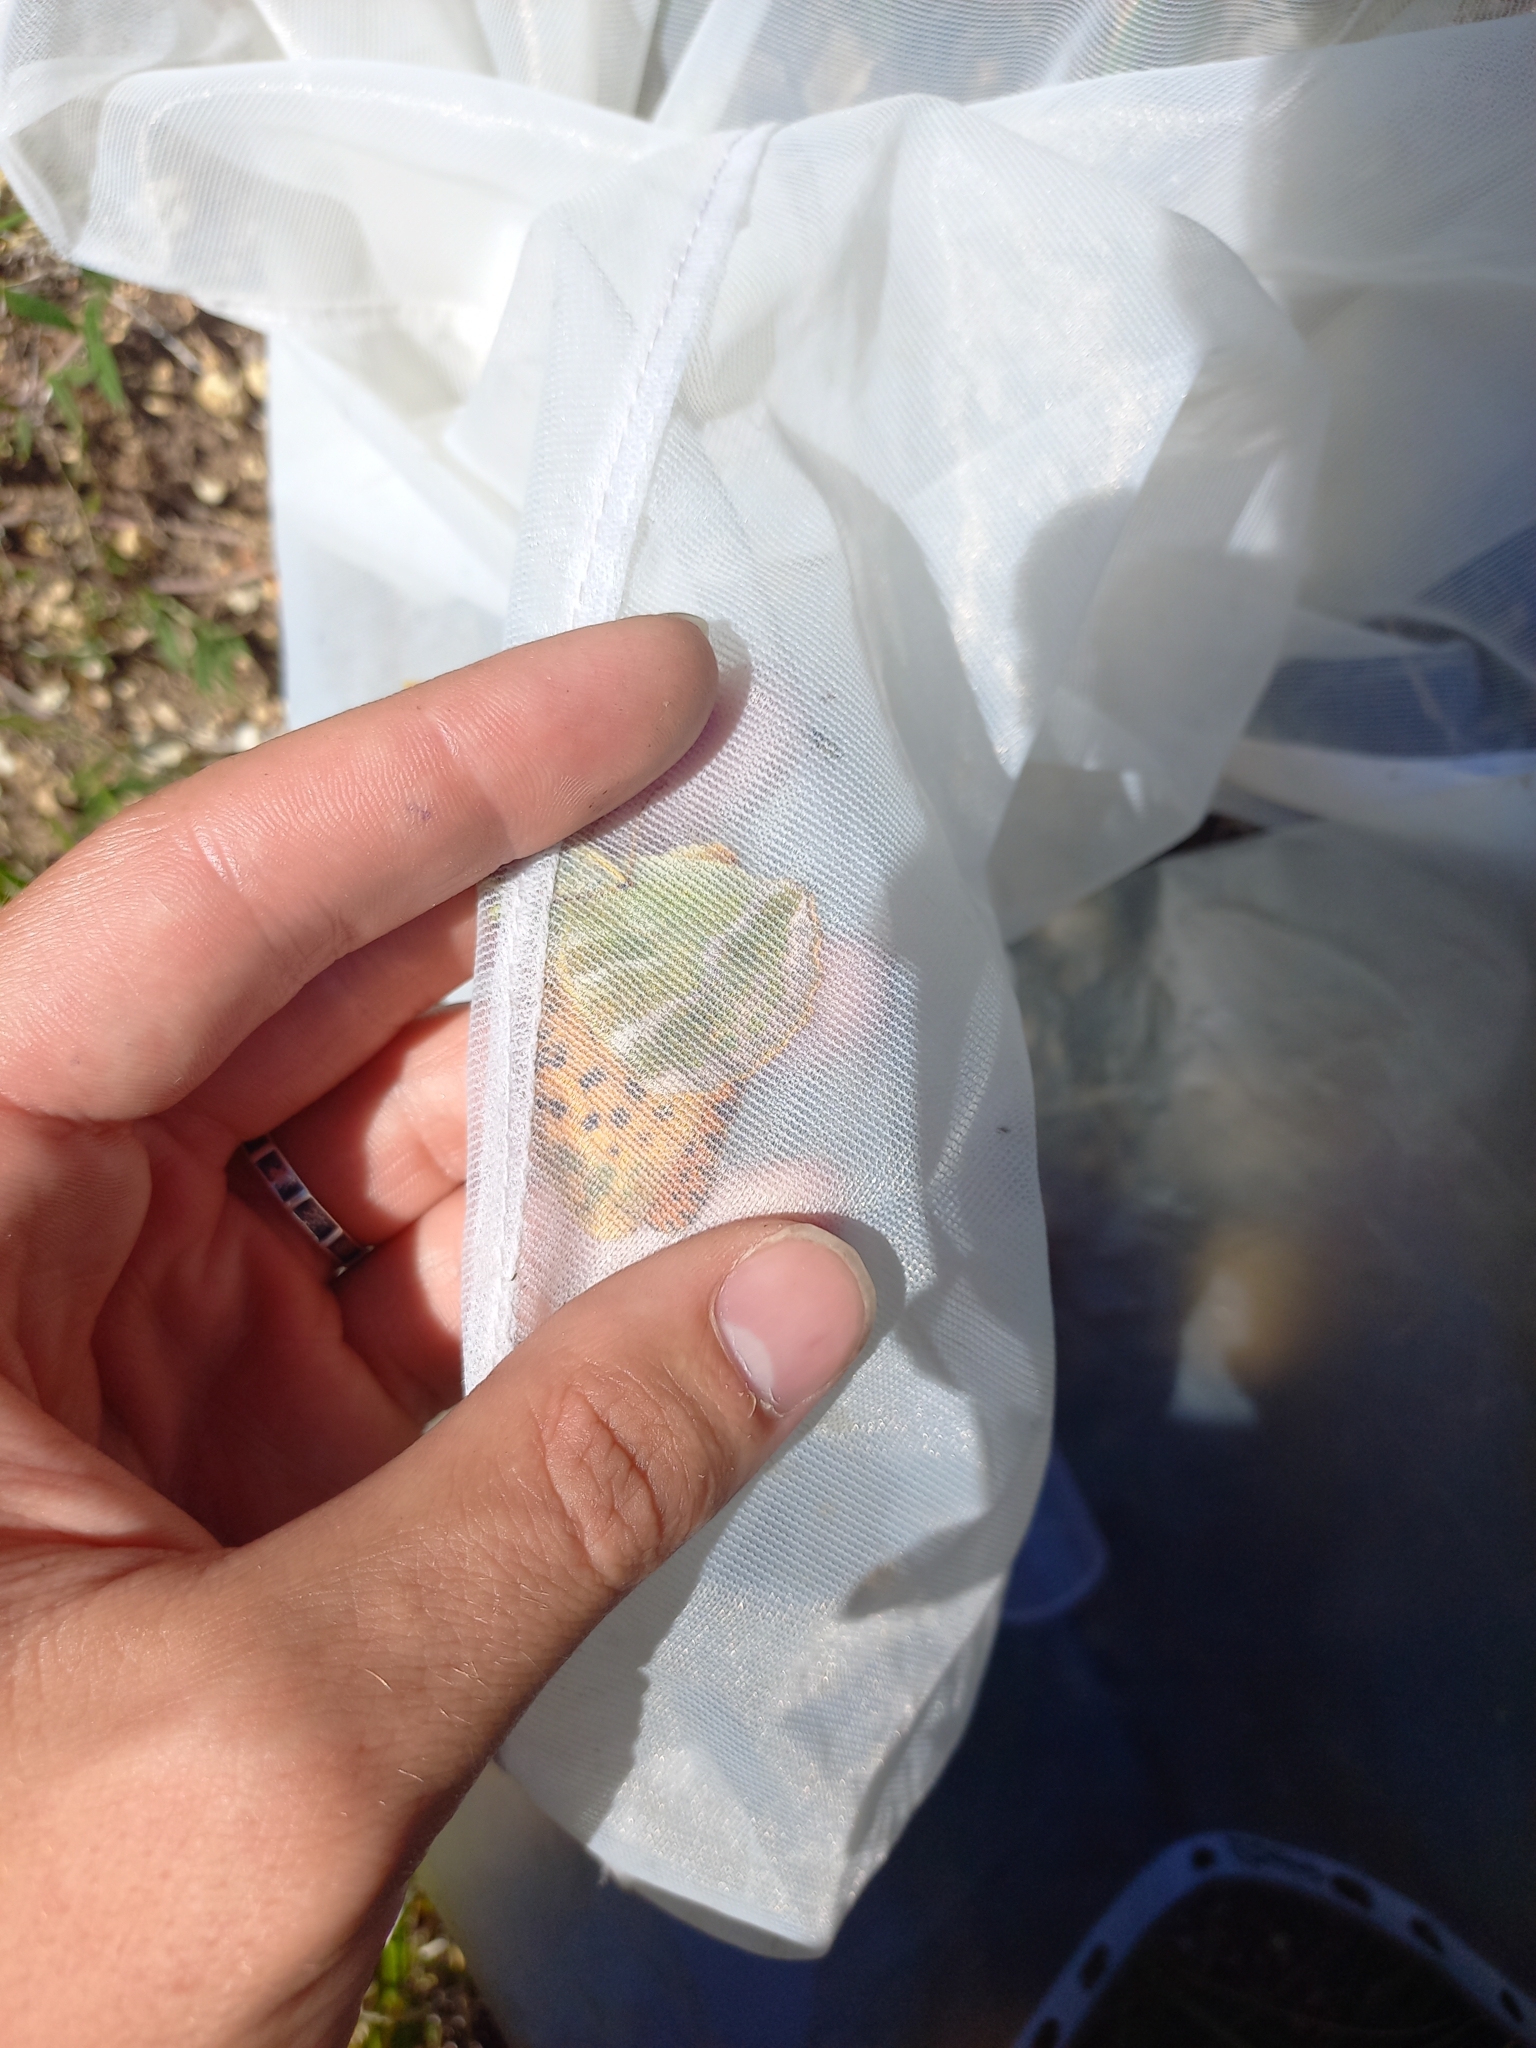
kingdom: Animalia
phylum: Arthropoda
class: Insecta
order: Lepidoptera
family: Nymphalidae
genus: Argynnis
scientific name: Argynnis paphia
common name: Silver-washed fritillary
